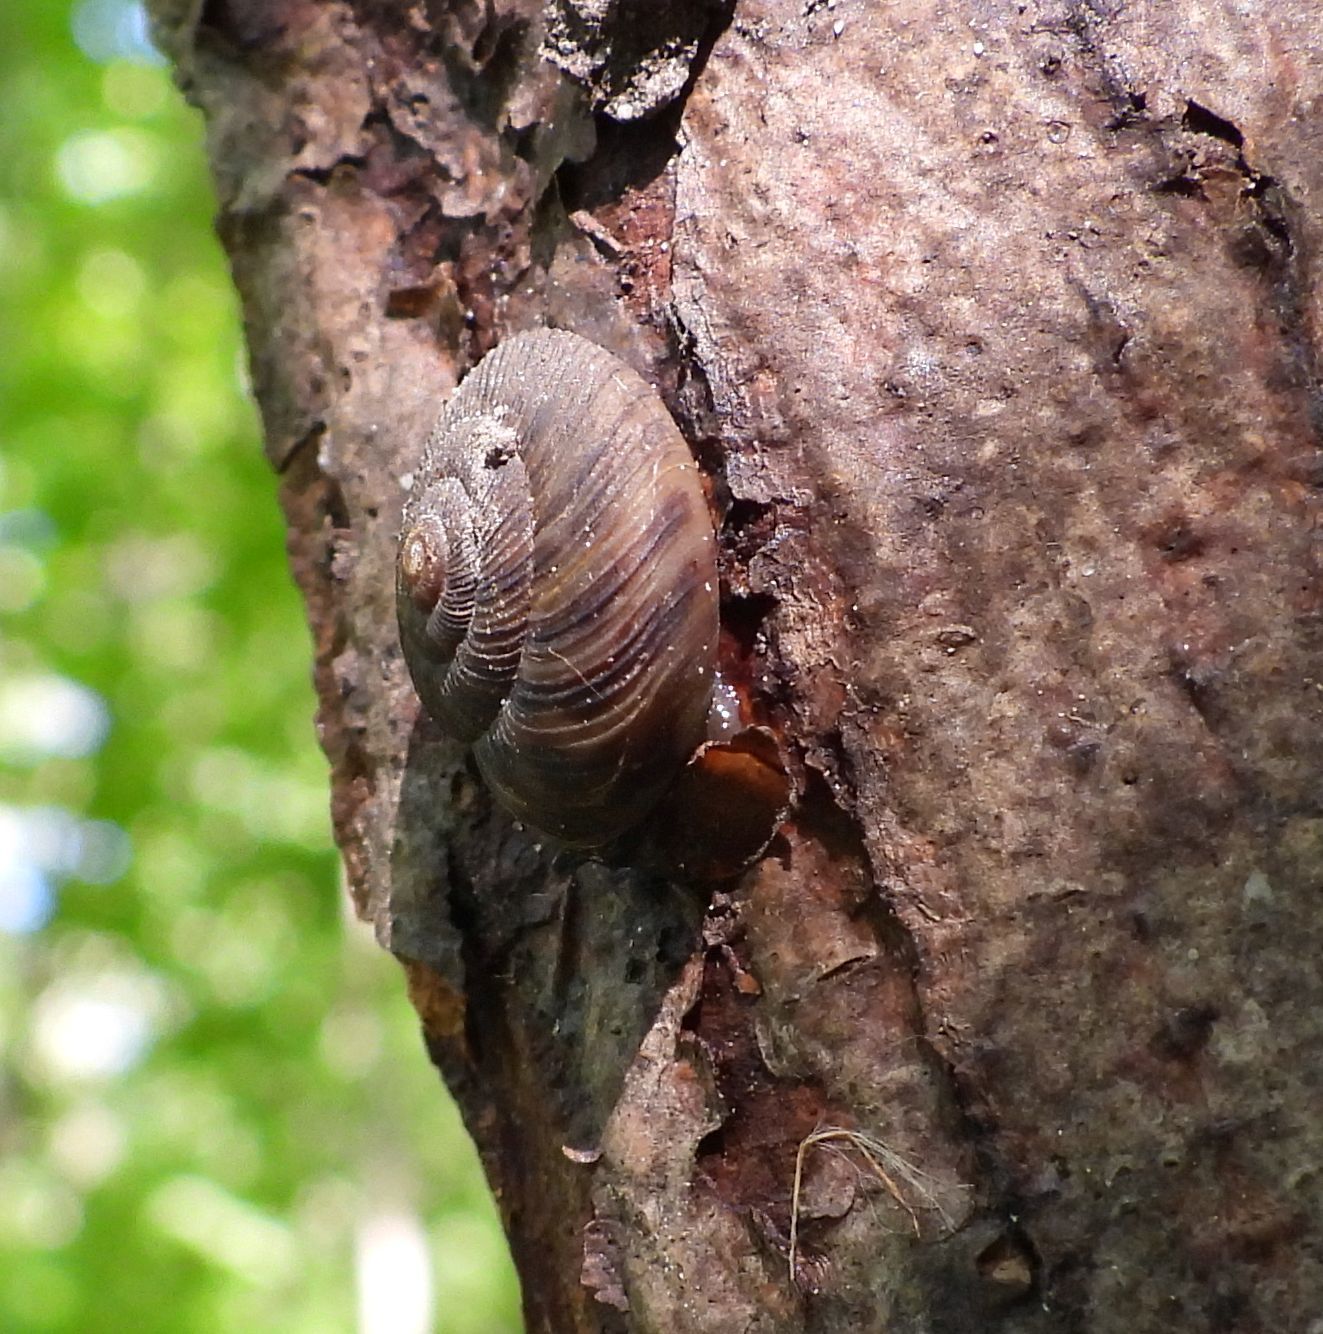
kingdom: Animalia
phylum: Mollusca
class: Gastropoda
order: Stylommatophora
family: Discidae
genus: Anguispira
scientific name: Anguispira alternata
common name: Flamed tigersnail
